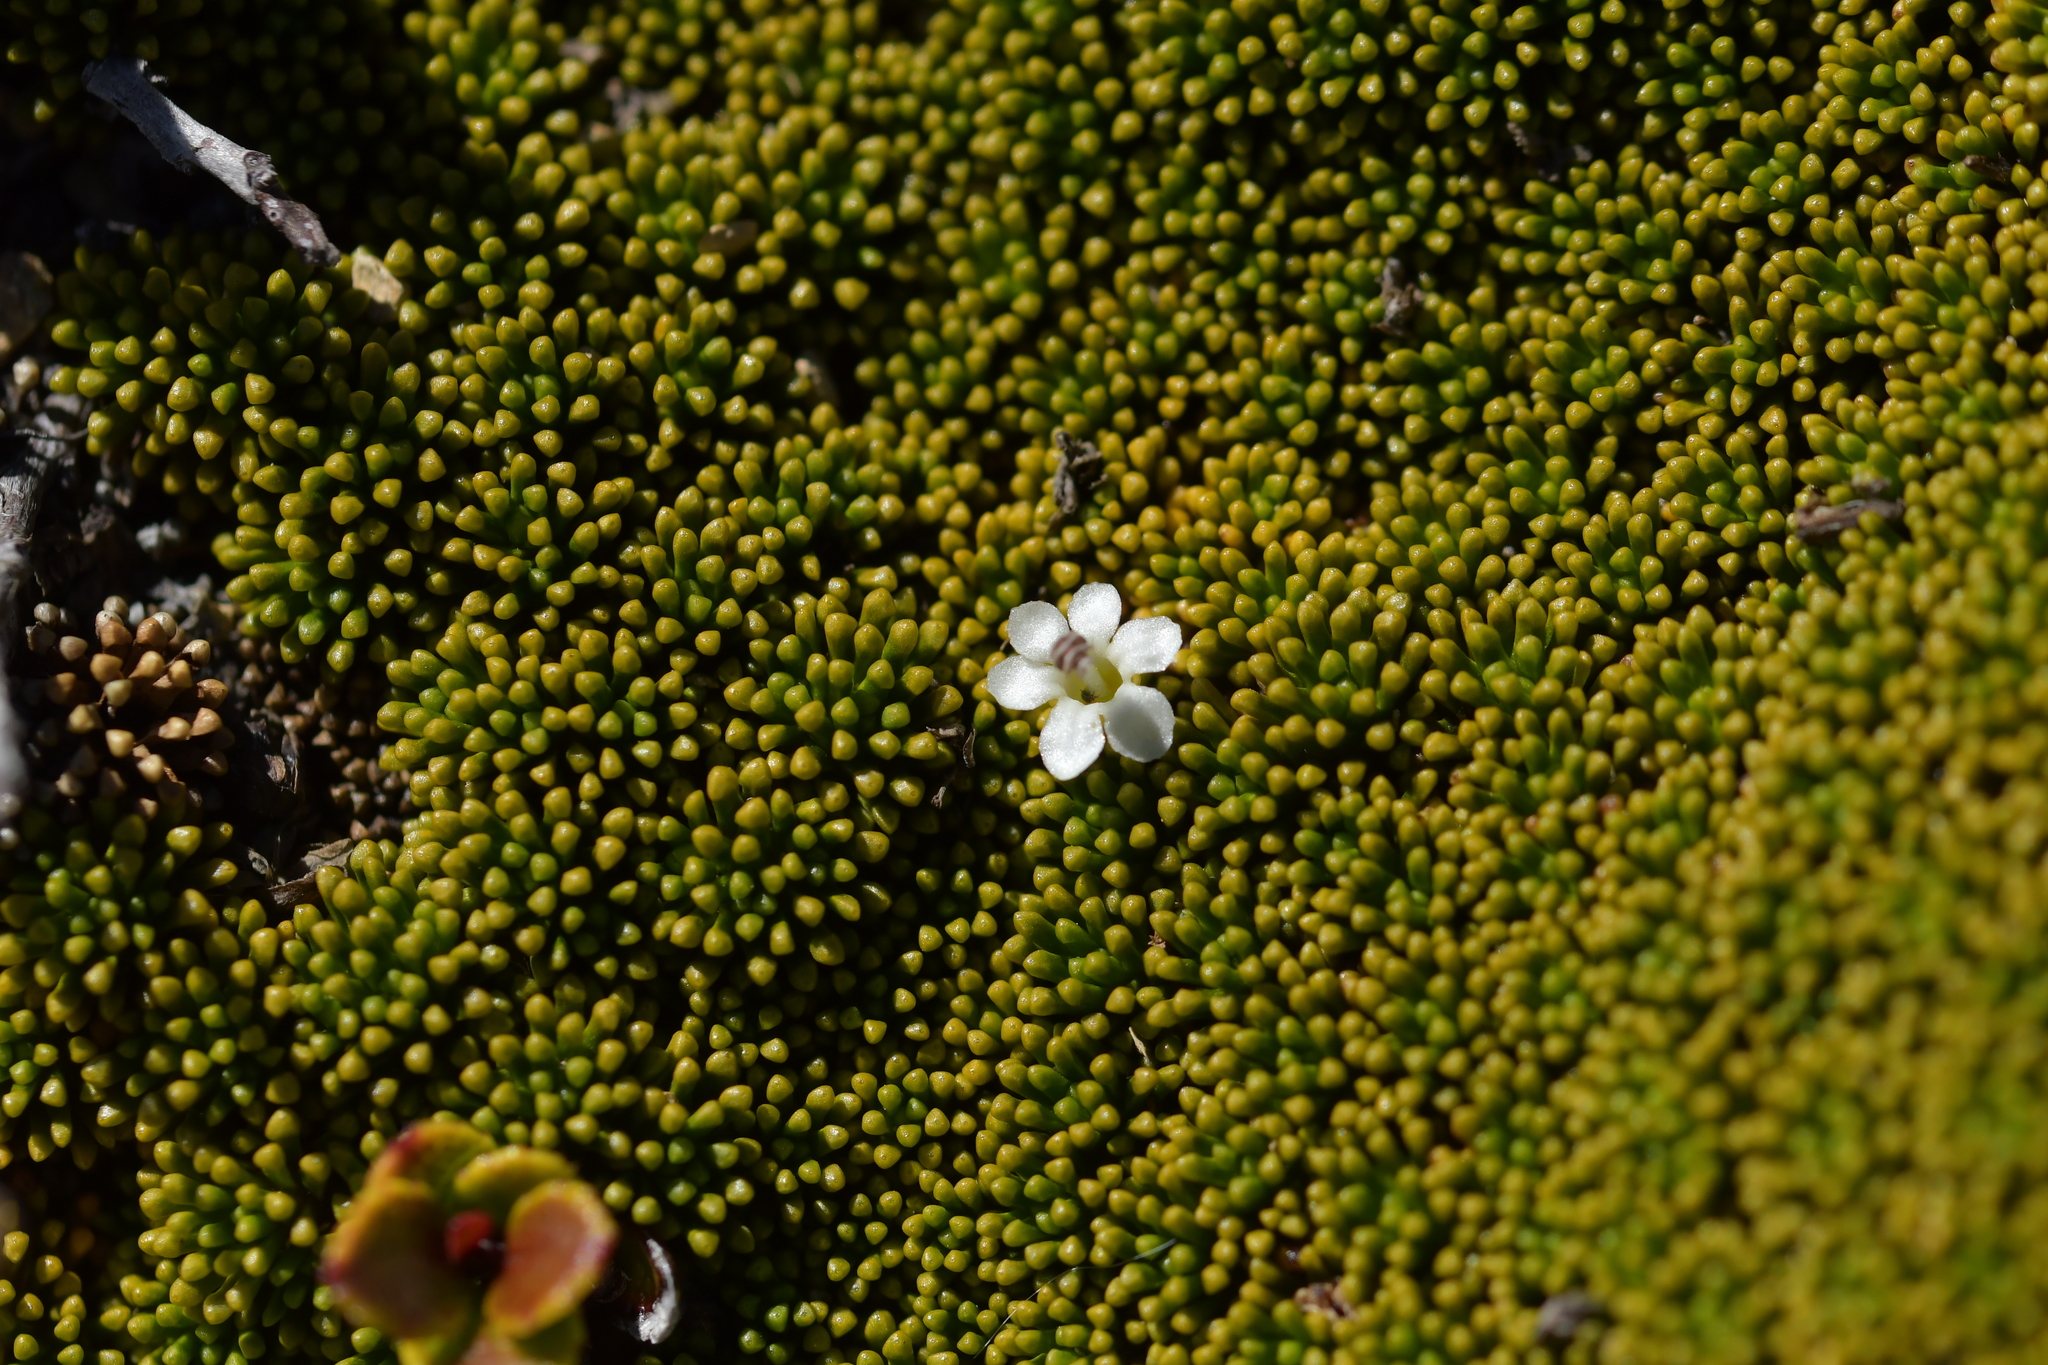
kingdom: Plantae
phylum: Tracheophyta
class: Magnoliopsida
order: Asterales
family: Stylidiaceae
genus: Phyllachne
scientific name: Phyllachne colensoi
